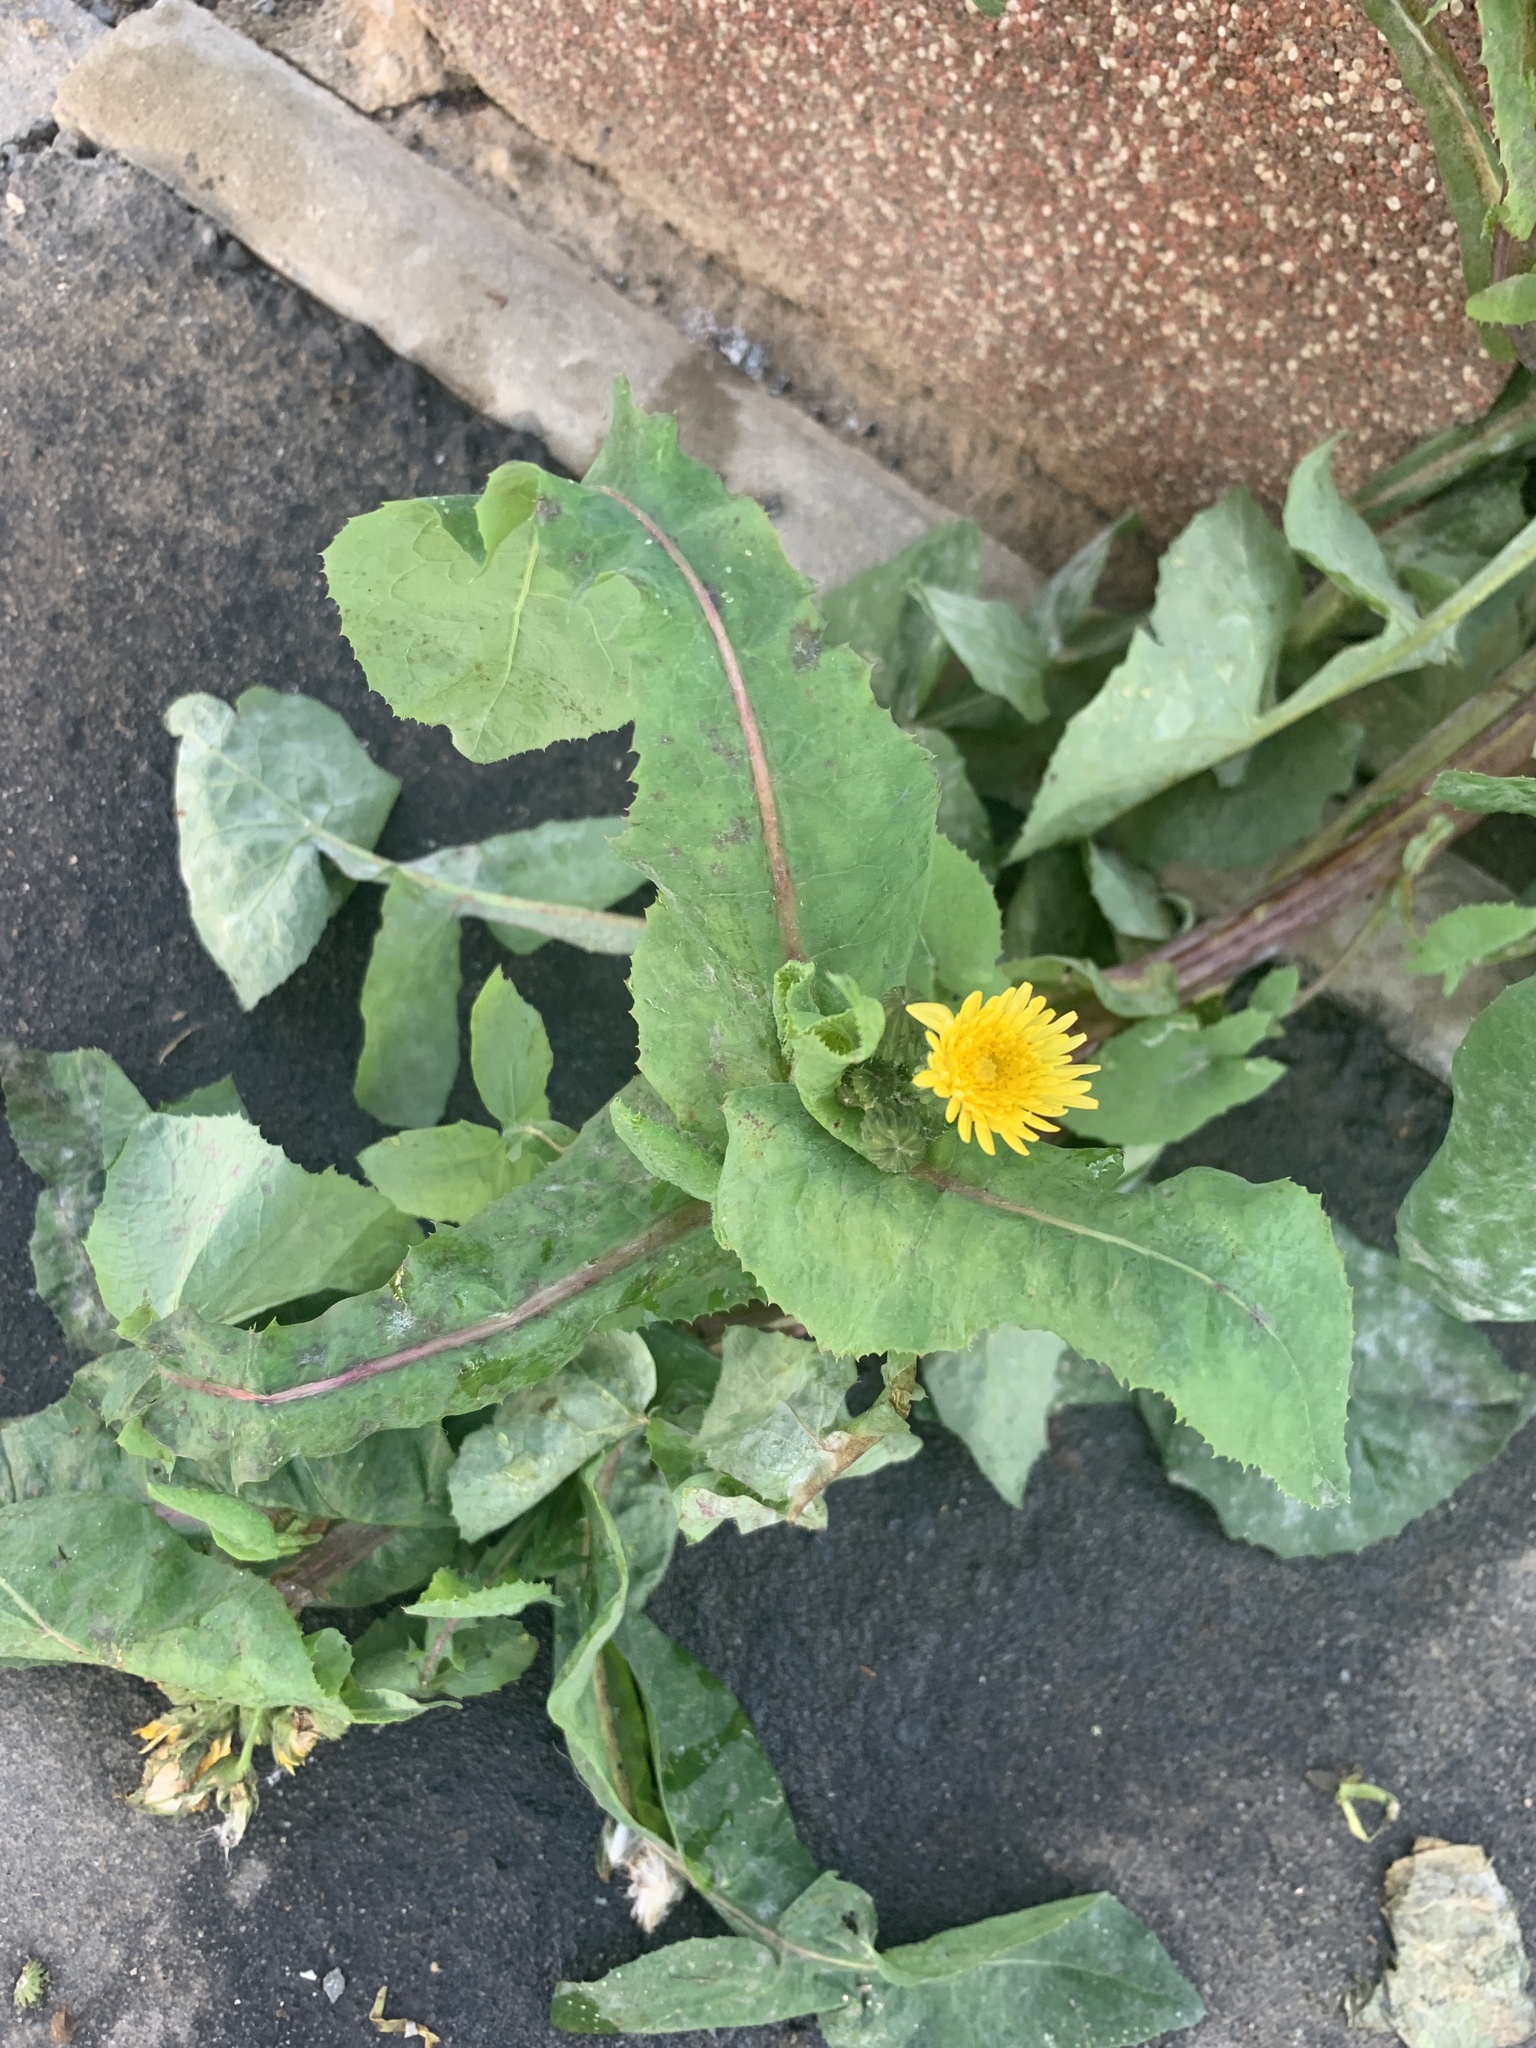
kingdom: Plantae
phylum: Tracheophyta
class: Magnoliopsida
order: Asterales
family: Asteraceae
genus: Sonchus
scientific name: Sonchus oleraceus
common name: Common sowthistle
